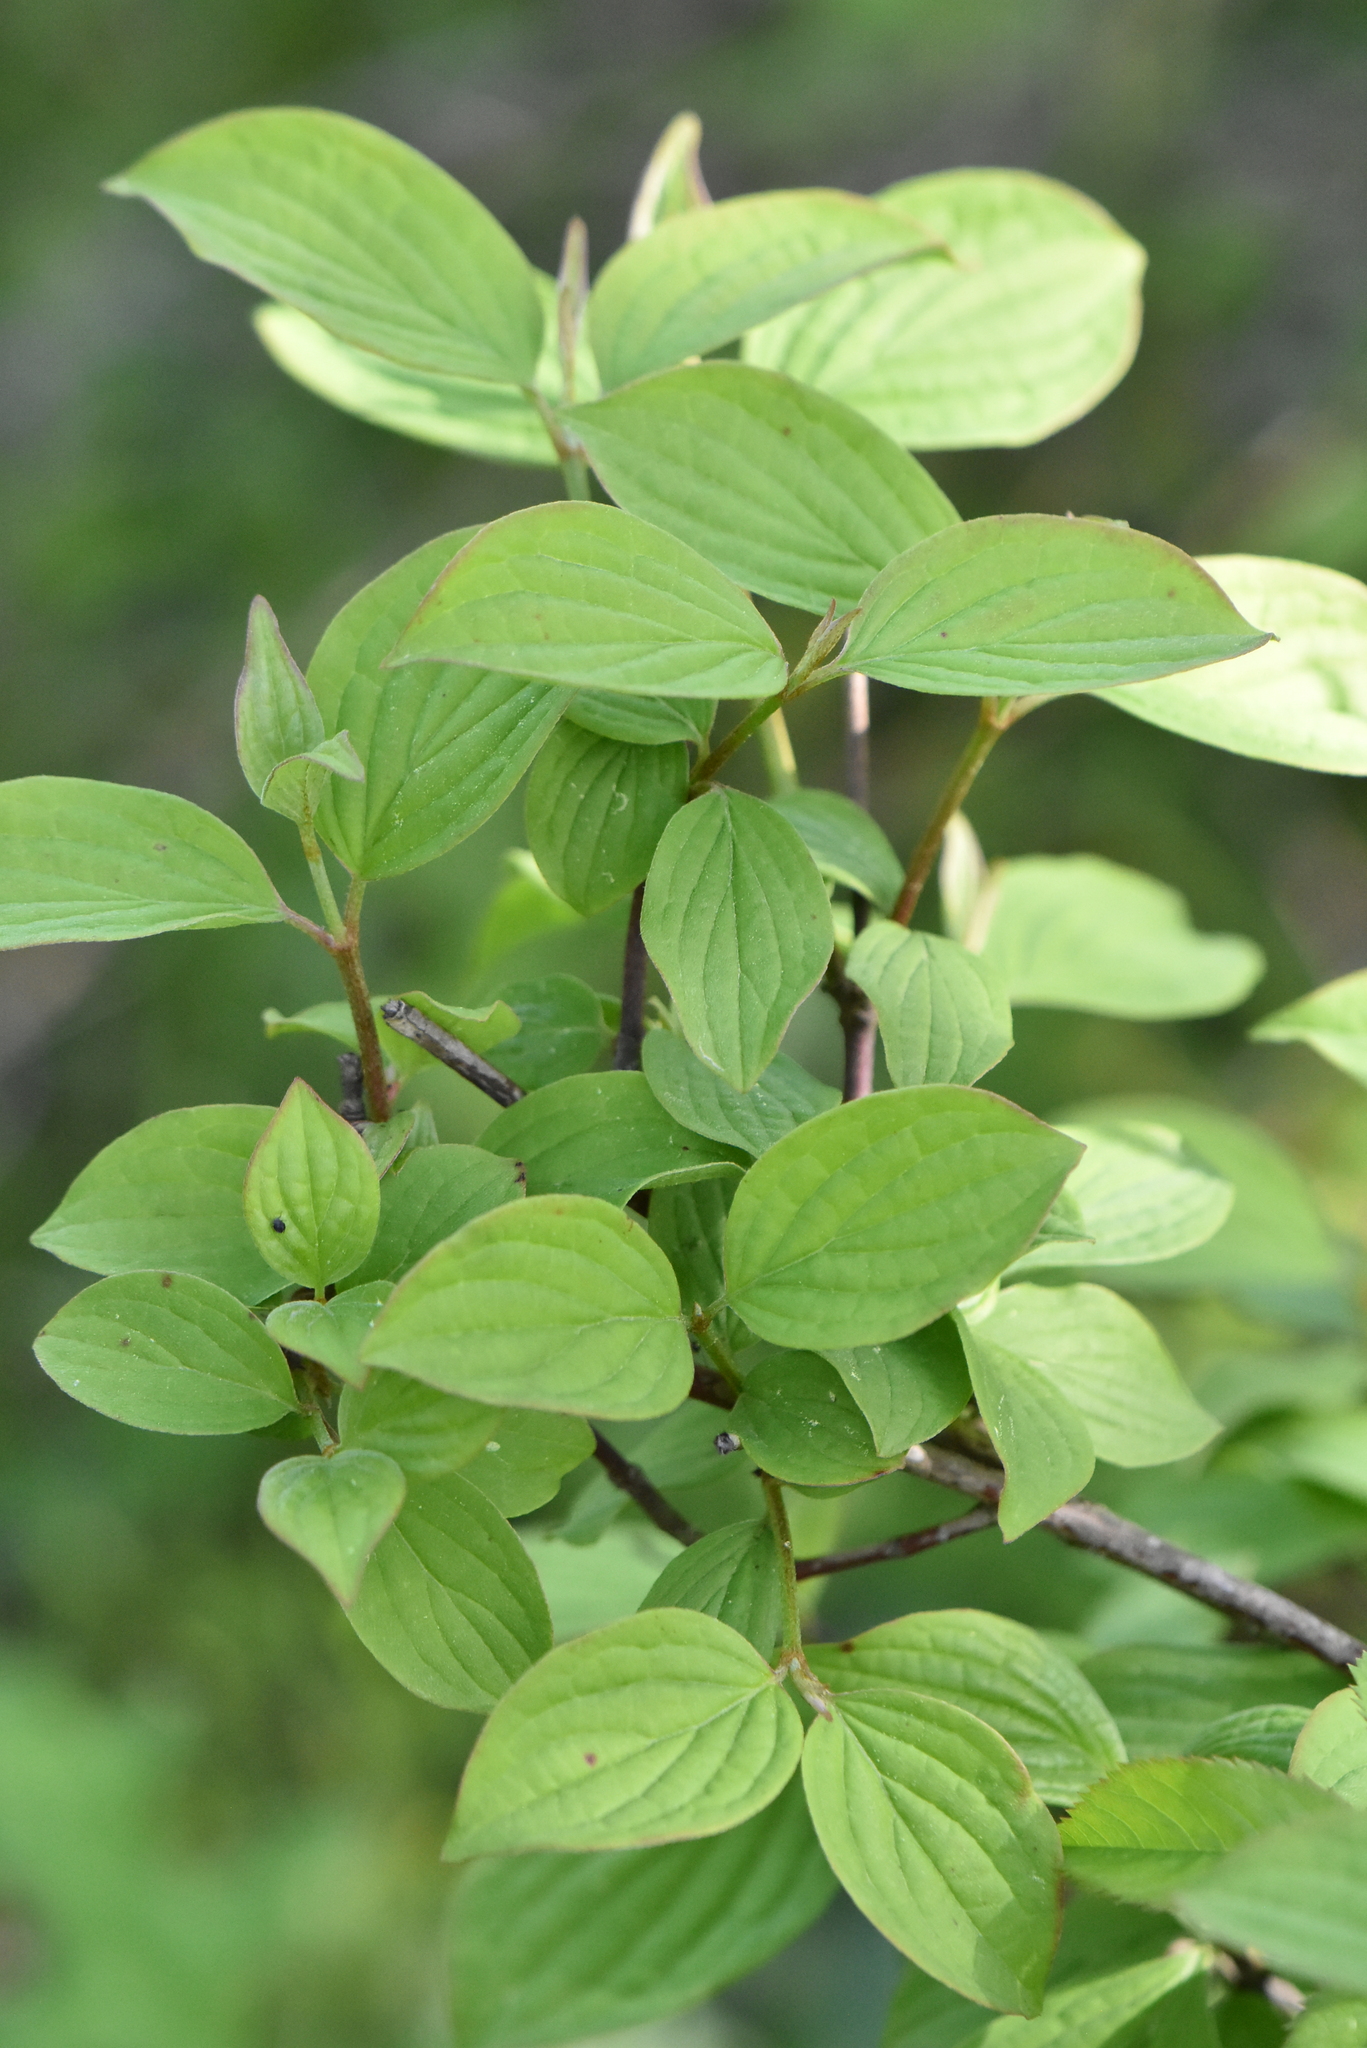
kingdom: Plantae
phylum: Tracheophyta
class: Magnoliopsida
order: Cornales
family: Cornaceae
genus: Cornus
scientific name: Cornus sanguinea
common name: Dogwood
